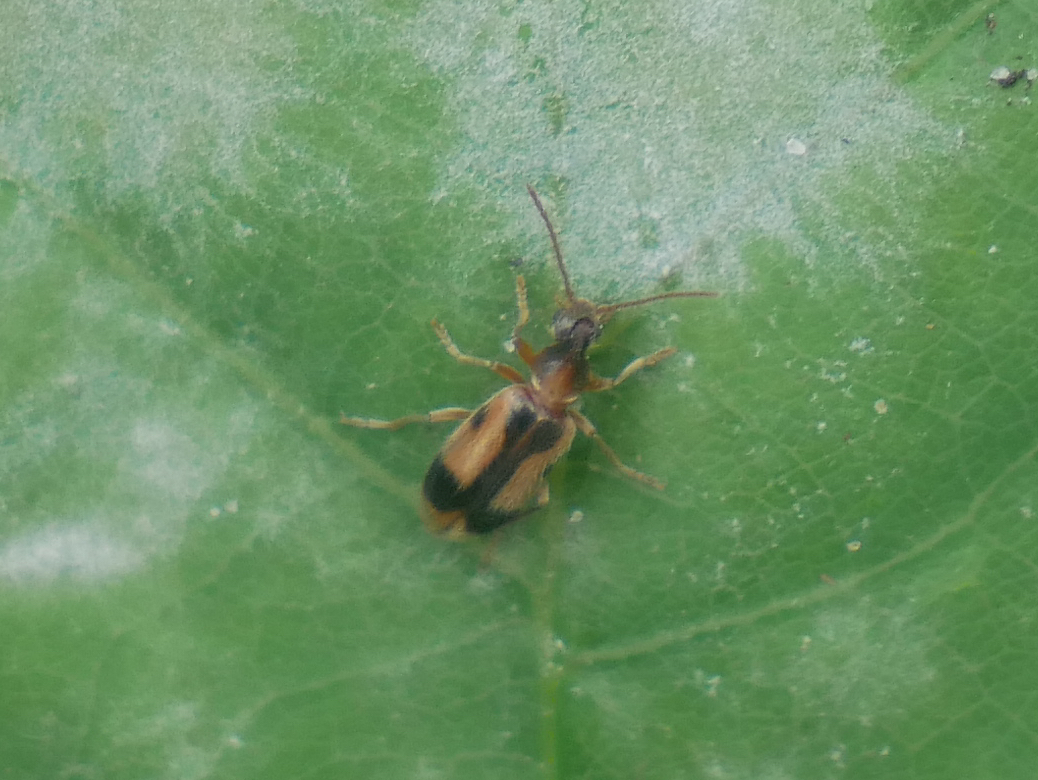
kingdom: Animalia
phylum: Arthropoda
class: Insecta
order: Coleoptera
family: Anthicidae
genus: Notoxus
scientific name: Notoxus monoceros
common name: Monoceros beetle
